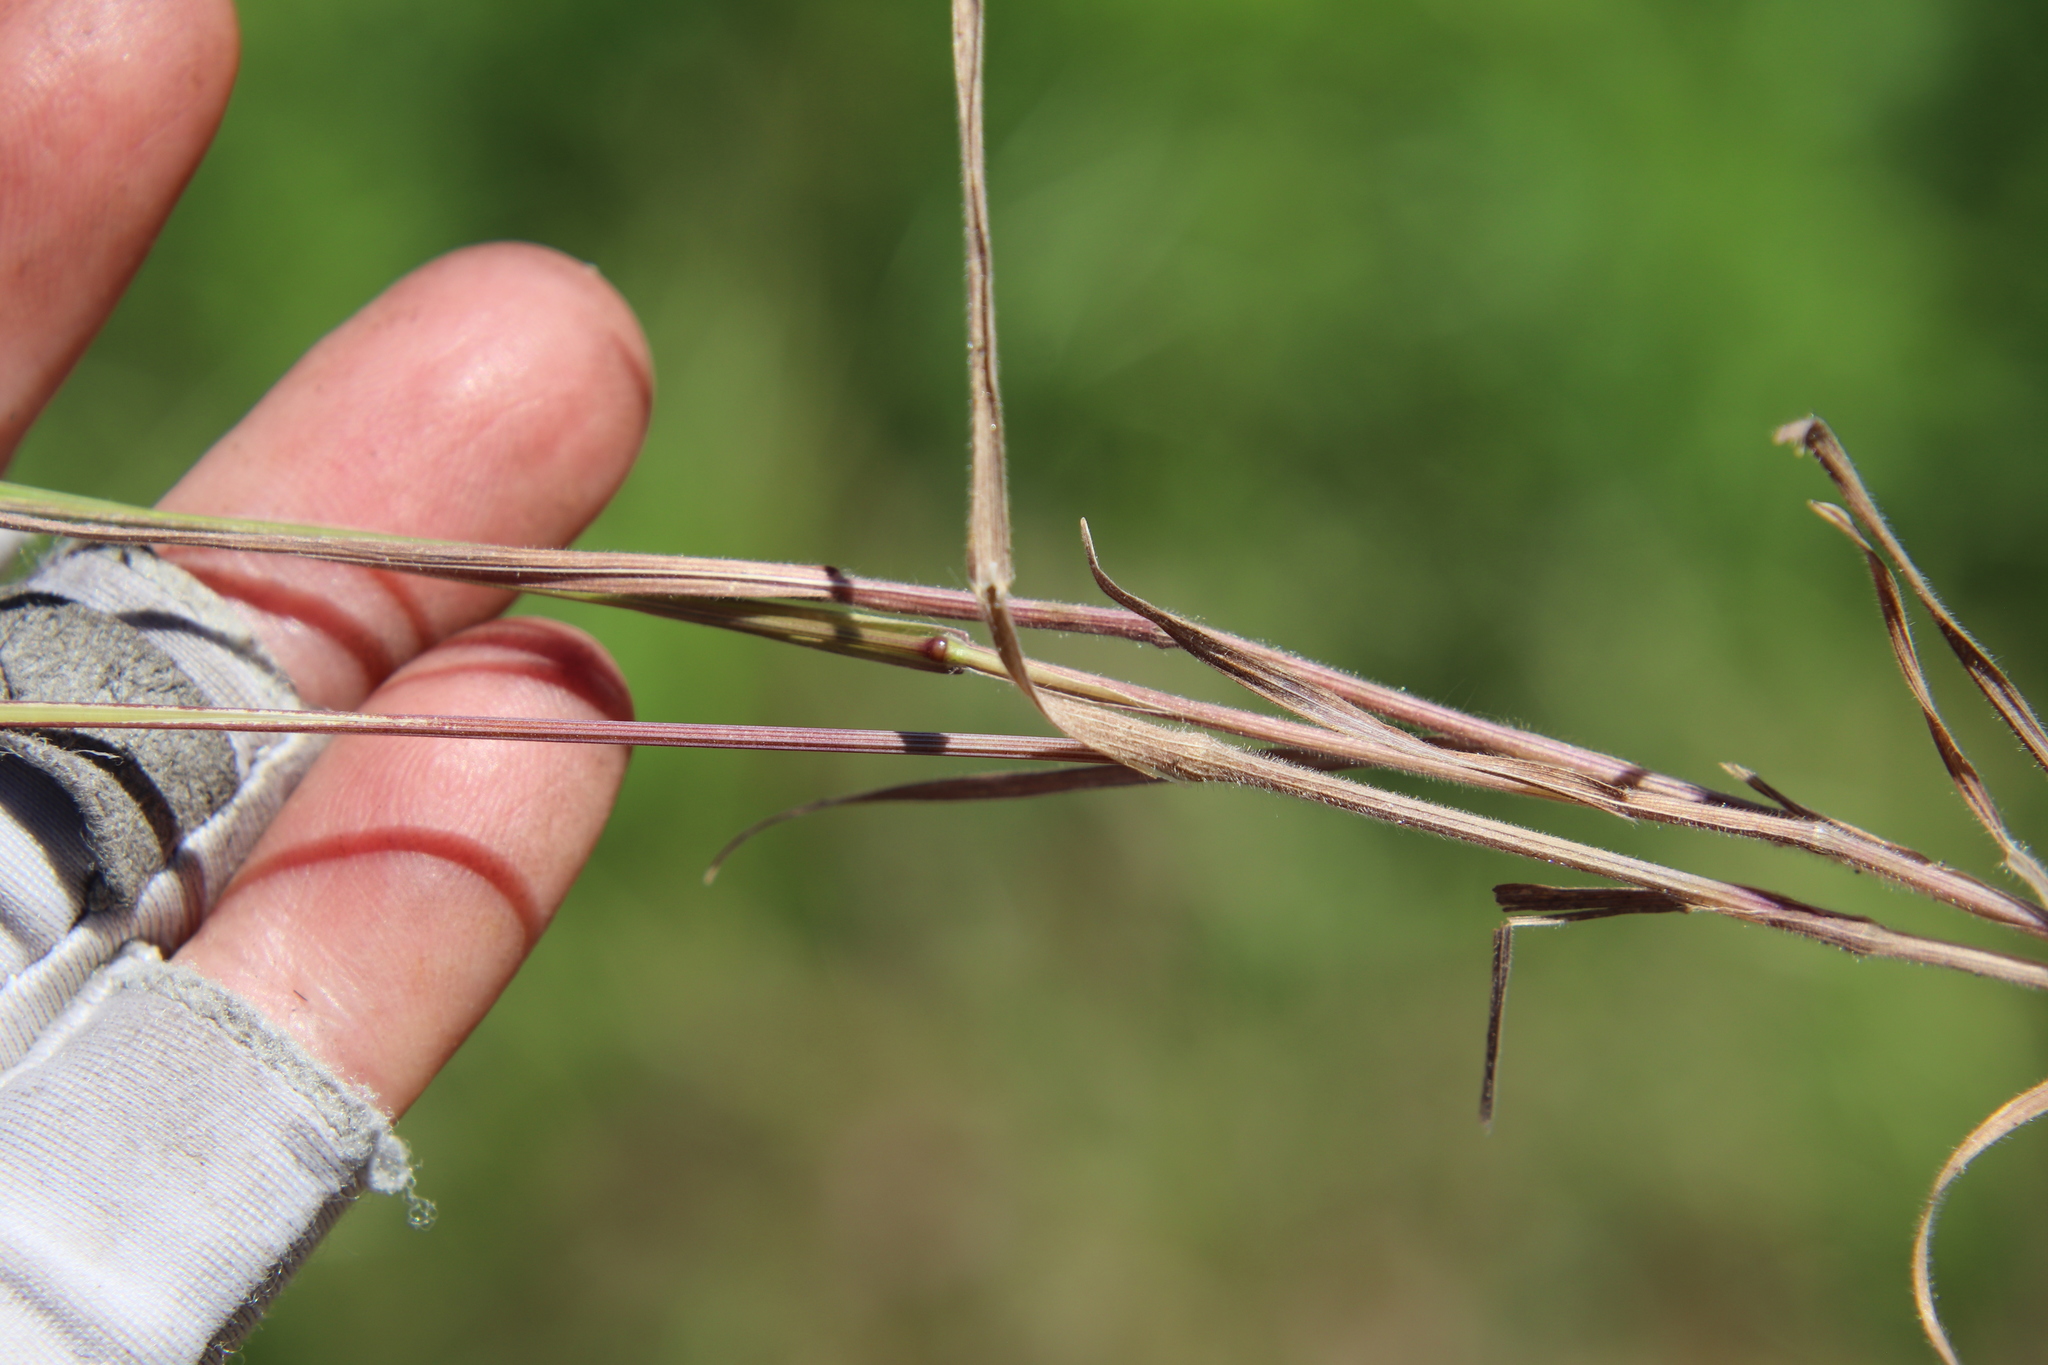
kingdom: Plantae
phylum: Tracheophyta
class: Liliopsida
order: Poales
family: Poaceae
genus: Bromus
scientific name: Bromus tectorum
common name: Cheatgrass
